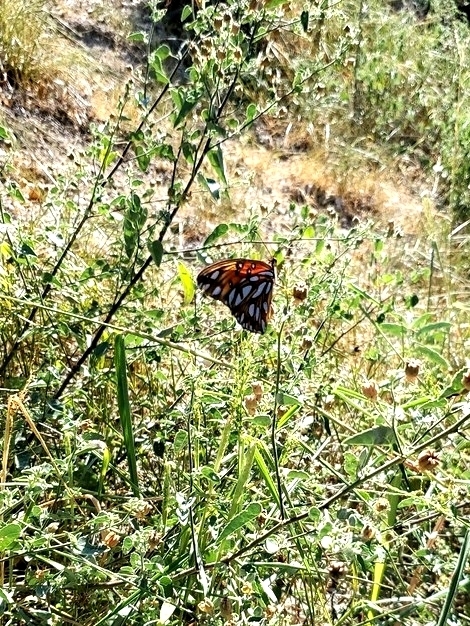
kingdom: Animalia
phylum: Arthropoda
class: Insecta
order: Lepidoptera
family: Nymphalidae
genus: Dione
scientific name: Dione vanillae
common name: Gulf fritillary
